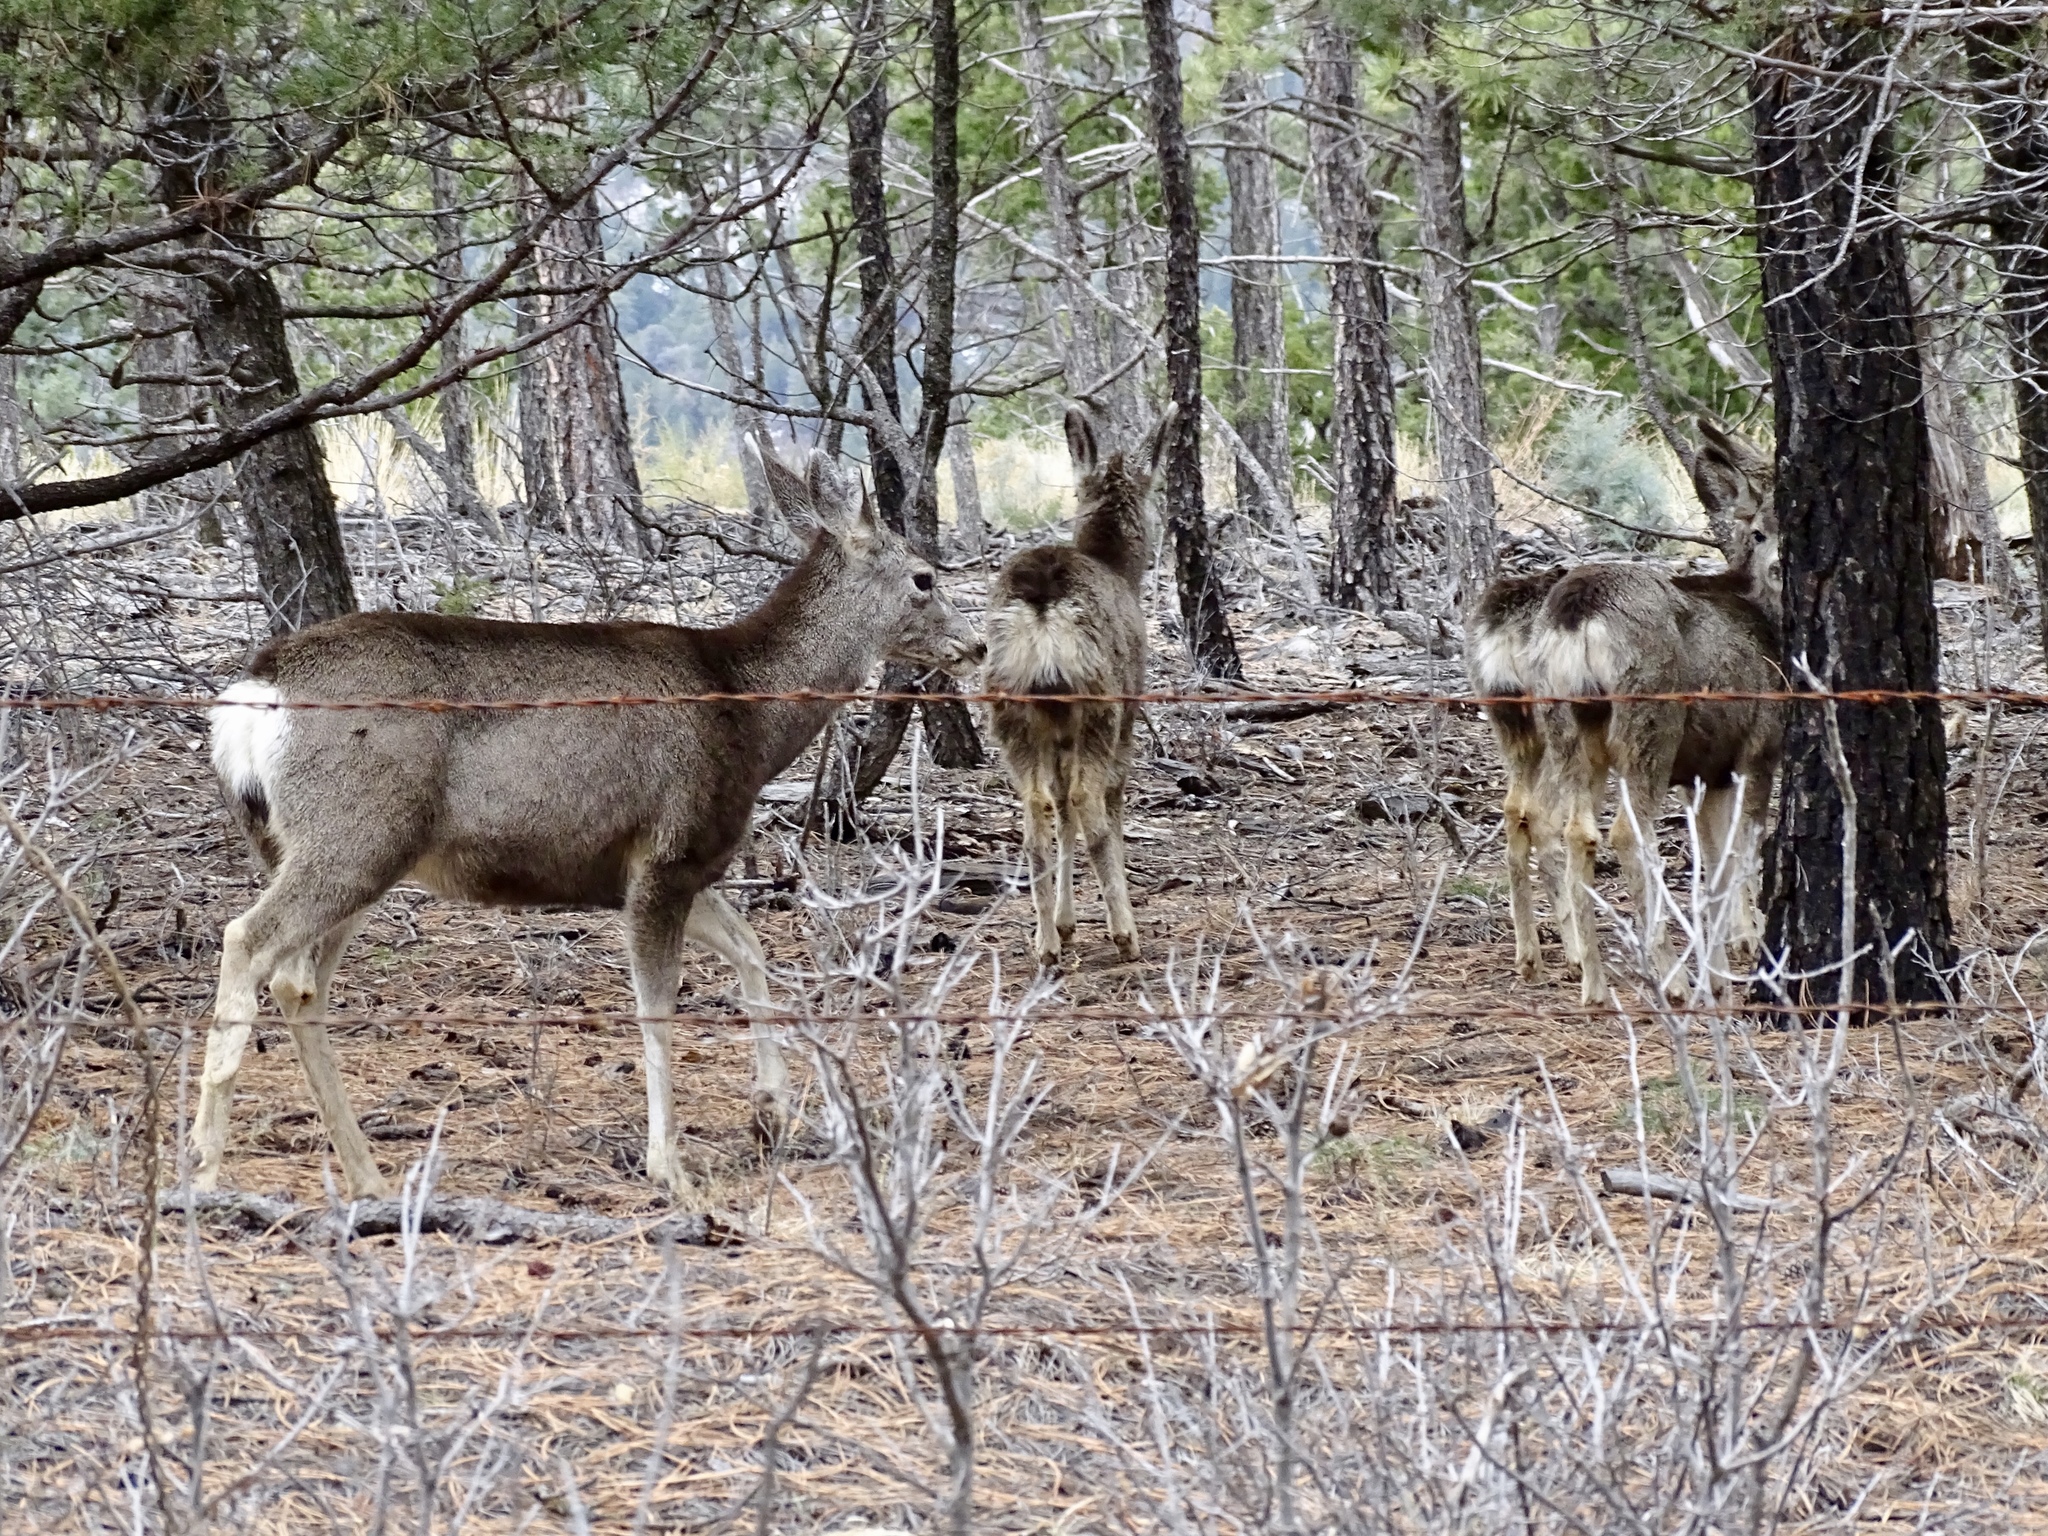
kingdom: Animalia
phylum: Chordata
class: Mammalia
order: Artiodactyla
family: Cervidae
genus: Odocoileus
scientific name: Odocoileus hemionus
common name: Mule deer
